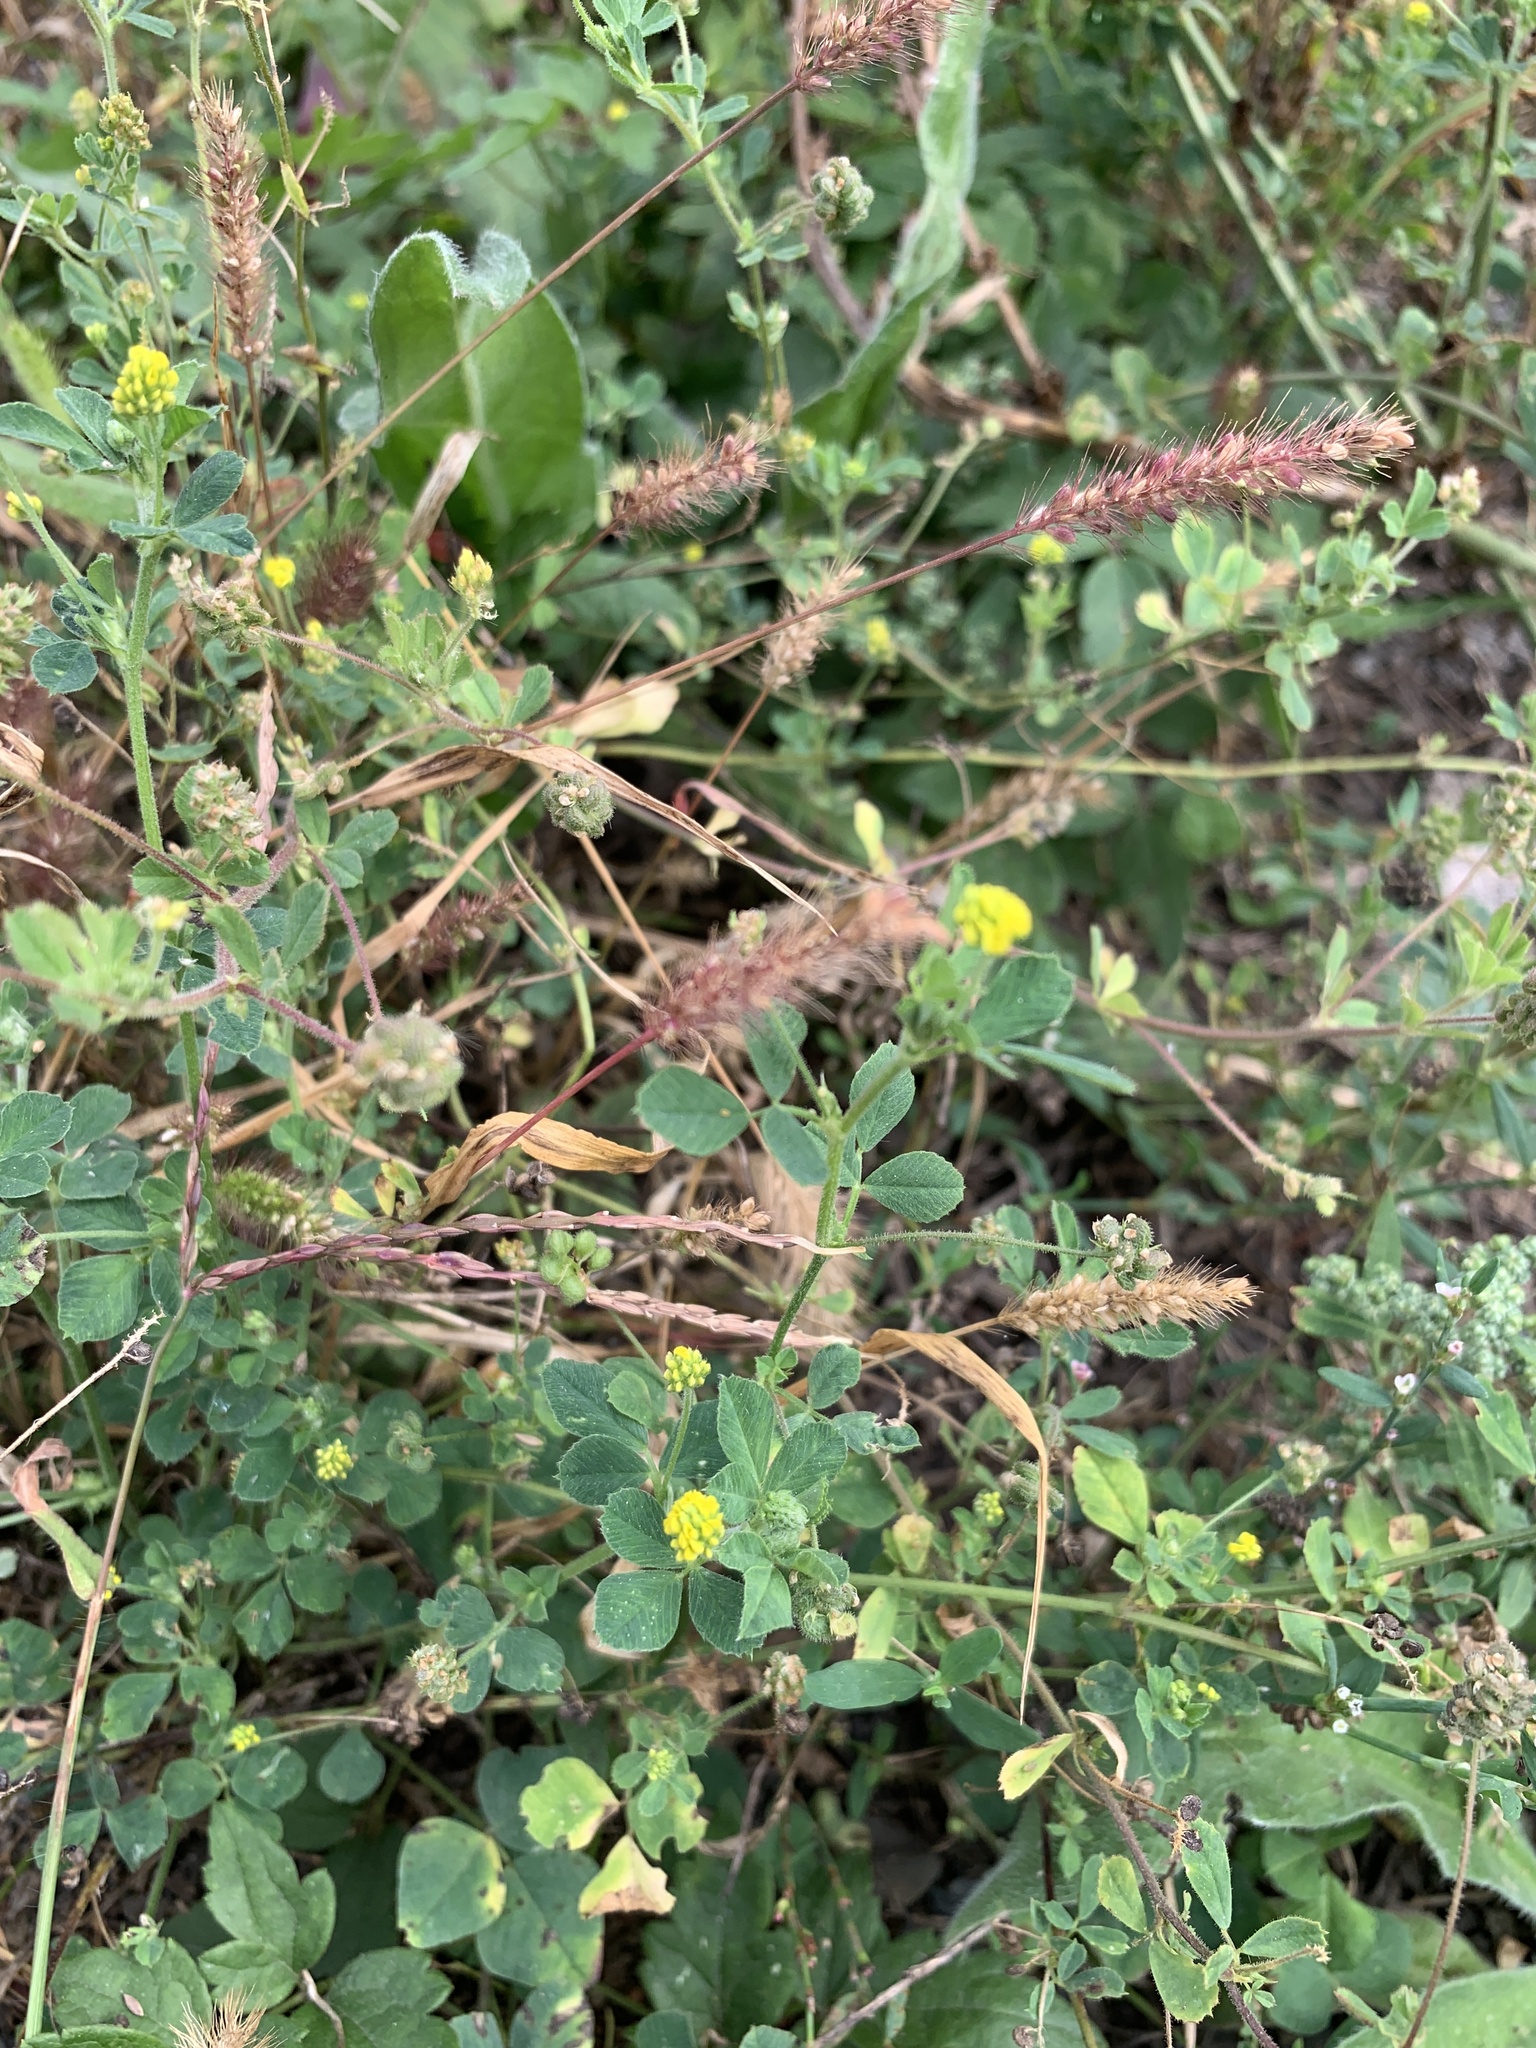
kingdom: Plantae
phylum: Tracheophyta
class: Magnoliopsida
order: Fabales
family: Fabaceae
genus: Medicago
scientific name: Medicago lupulina
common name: Black medick
